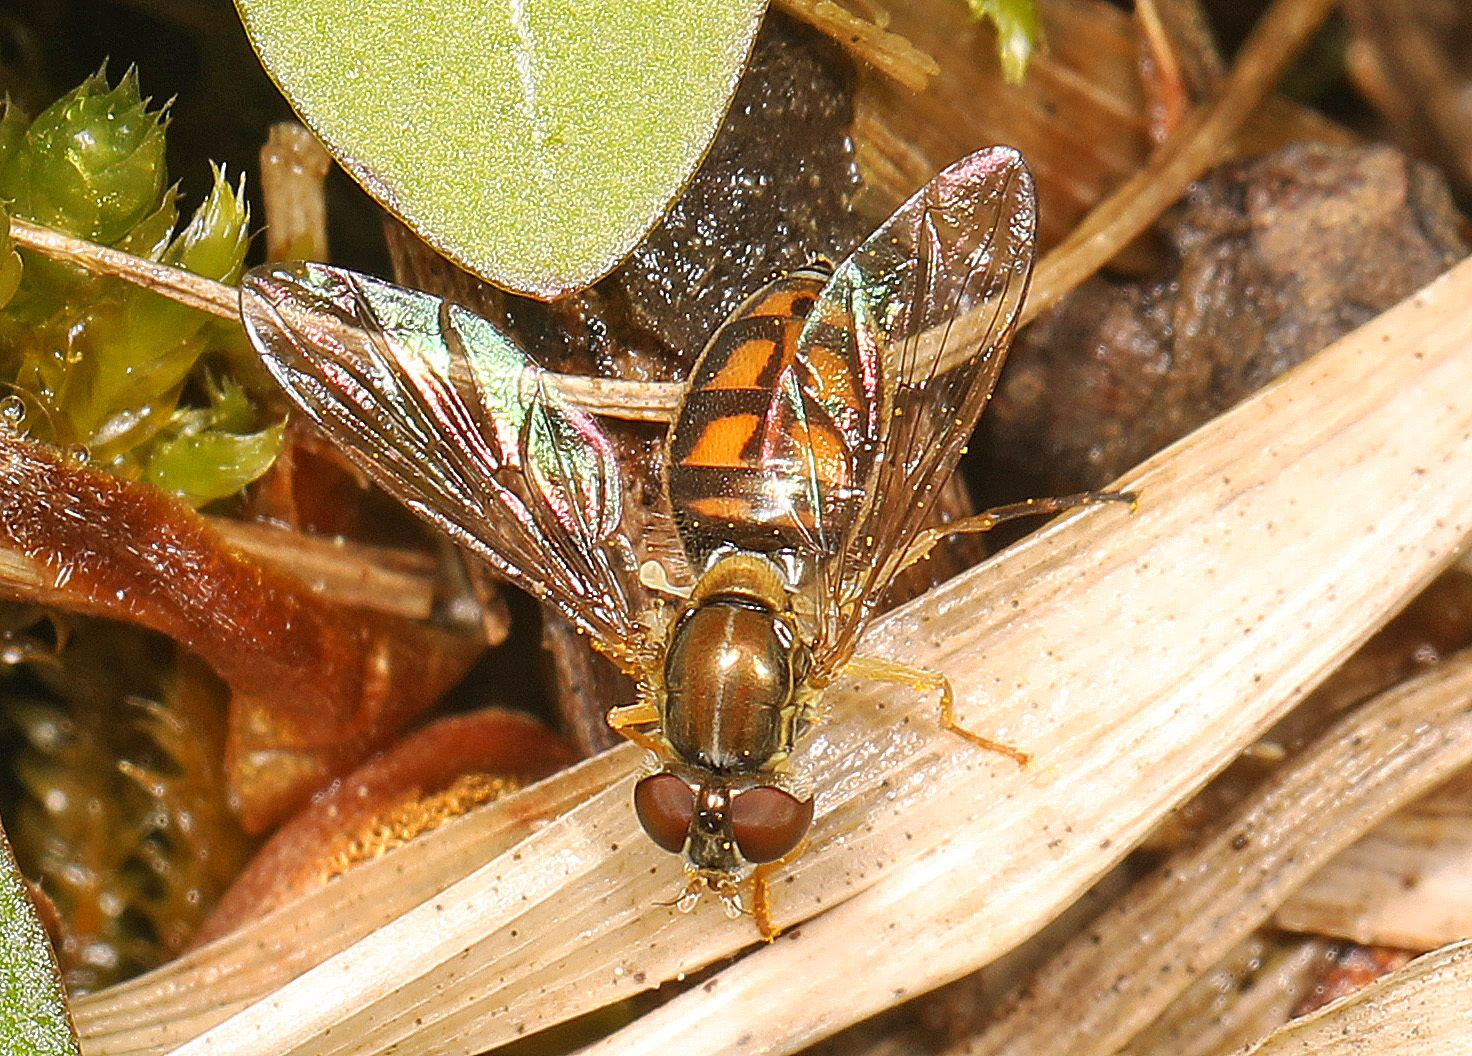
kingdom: Animalia
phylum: Arthropoda
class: Insecta
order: Diptera
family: Syrphidae
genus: Toxomerus
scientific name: Toxomerus marginatus
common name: Syrphid fly
